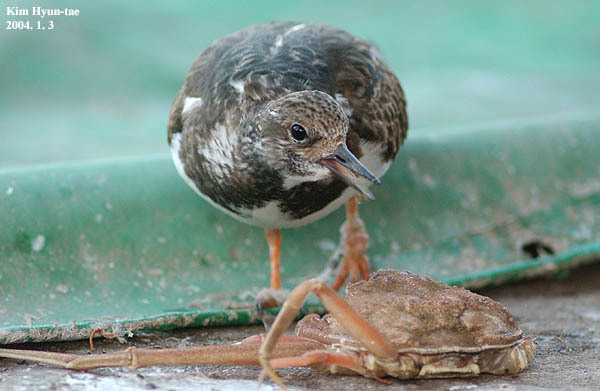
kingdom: Animalia
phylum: Chordata
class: Aves
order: Charadriiformes
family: Scolopacidae
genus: Arenaria
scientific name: Arenaria interpres
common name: Ruddy turnstone
